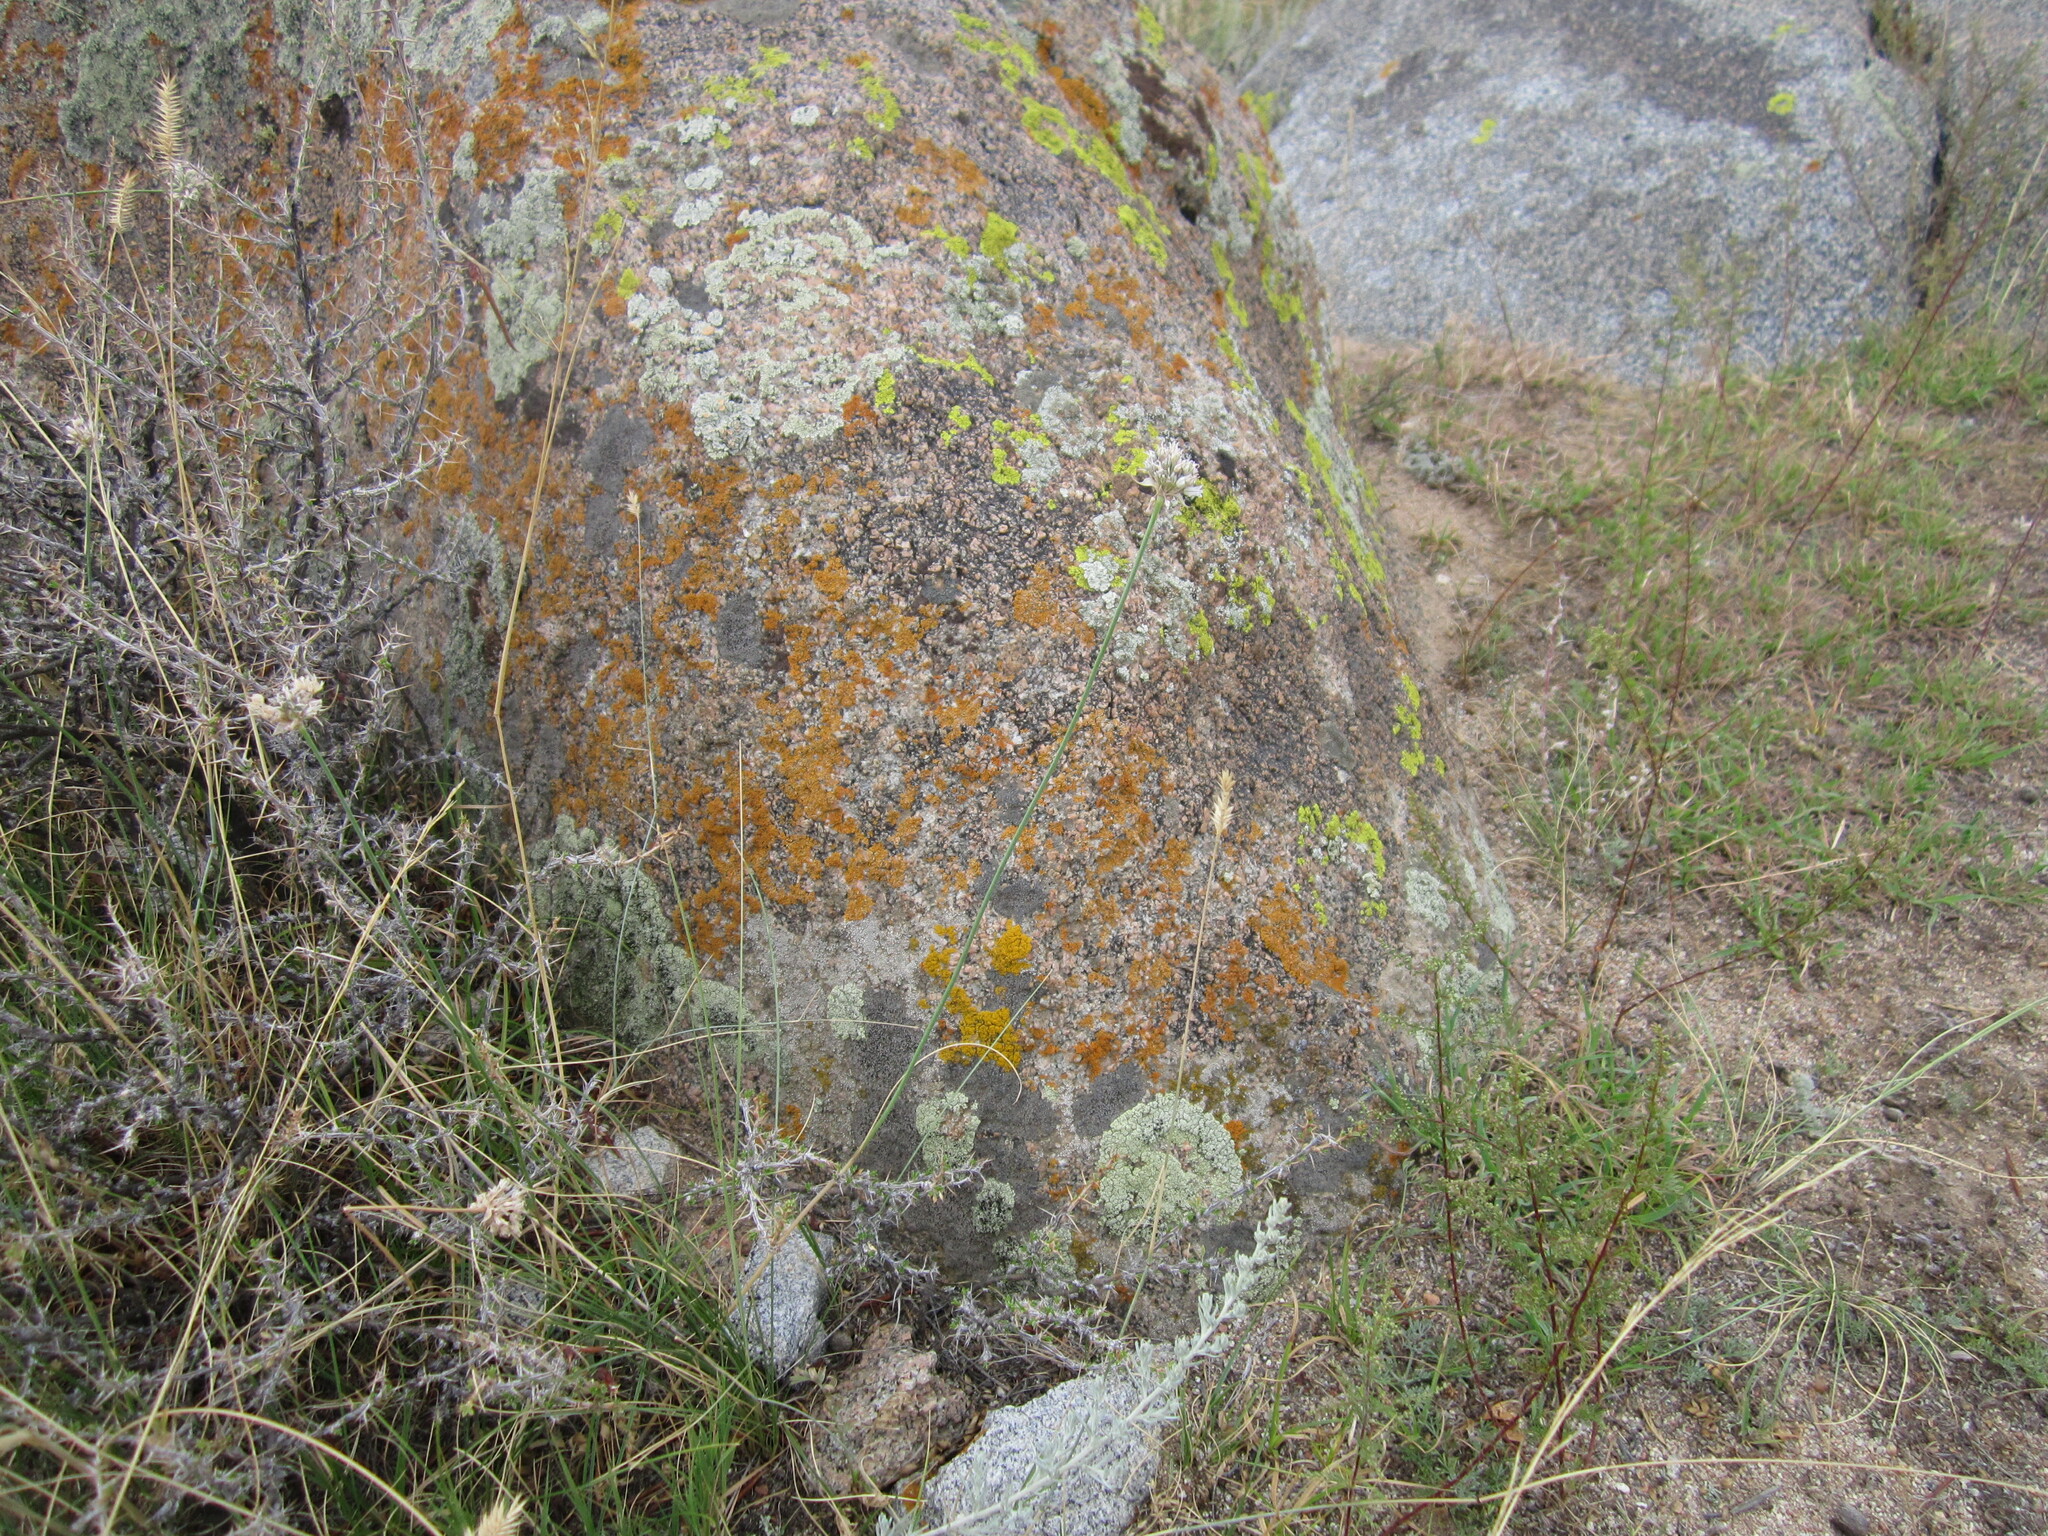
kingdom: Plantae
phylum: Tracheophyta
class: Liliopsida
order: Asparagales
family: Amaryllidaceae
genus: Allium
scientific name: Allium korolkowii
